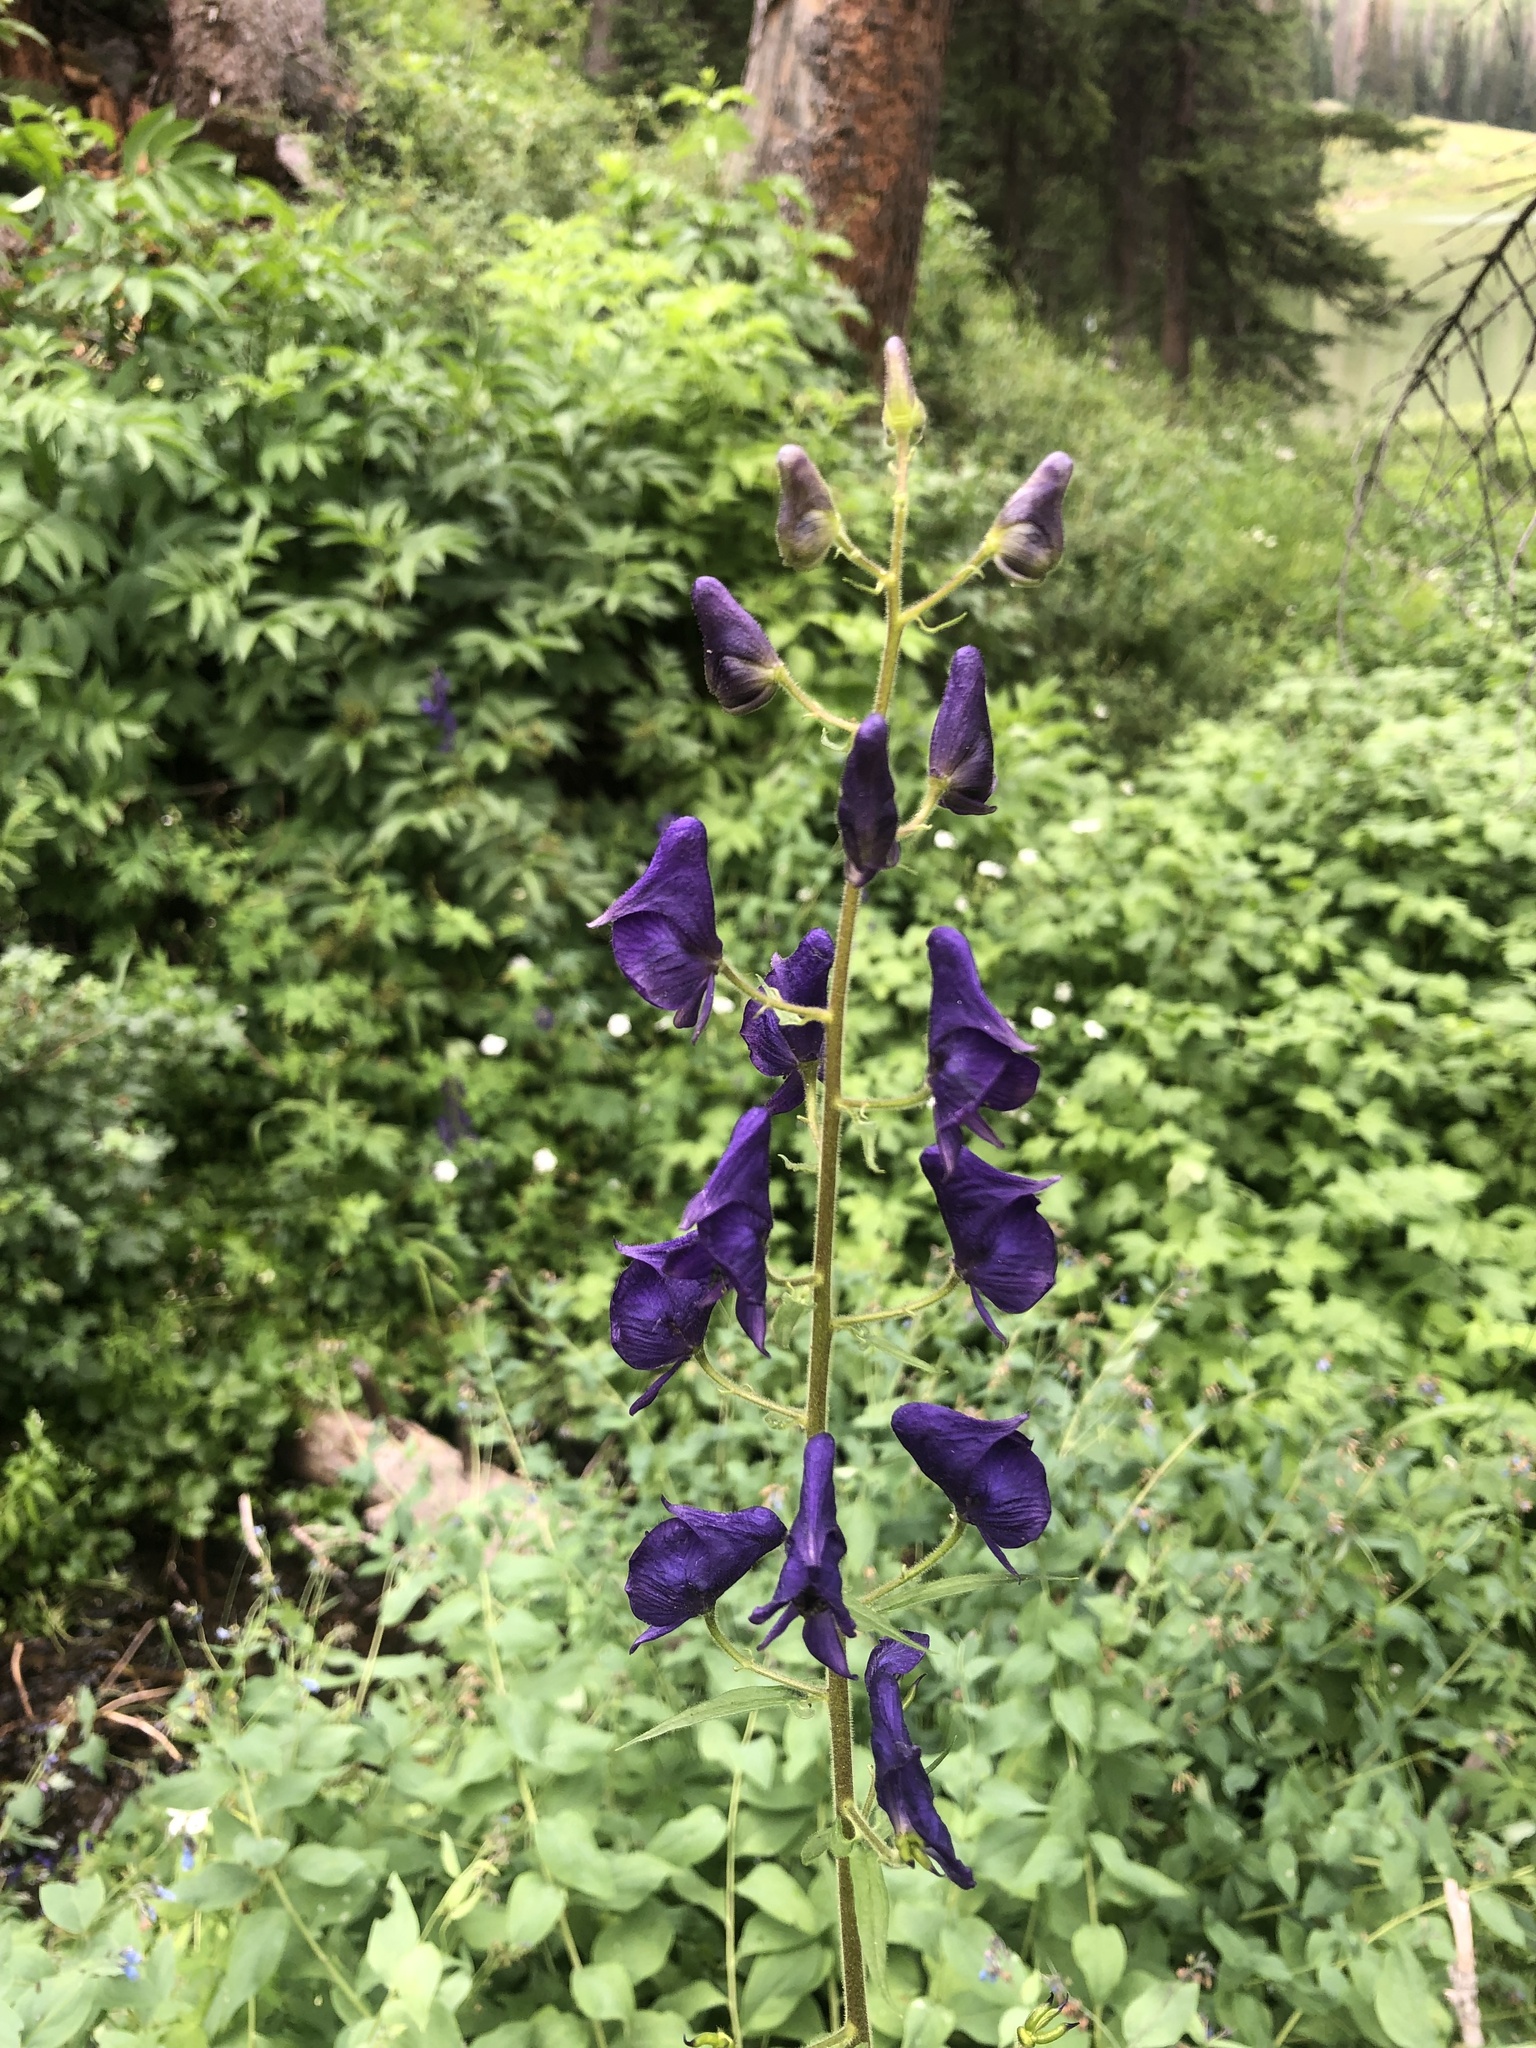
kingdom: Plantae
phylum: Tracheophyta
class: Magnoliopsida
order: Ranunculales
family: Ranunculaceae
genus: Aconitum
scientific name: Aconitum columbianum
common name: Columbia aconite
